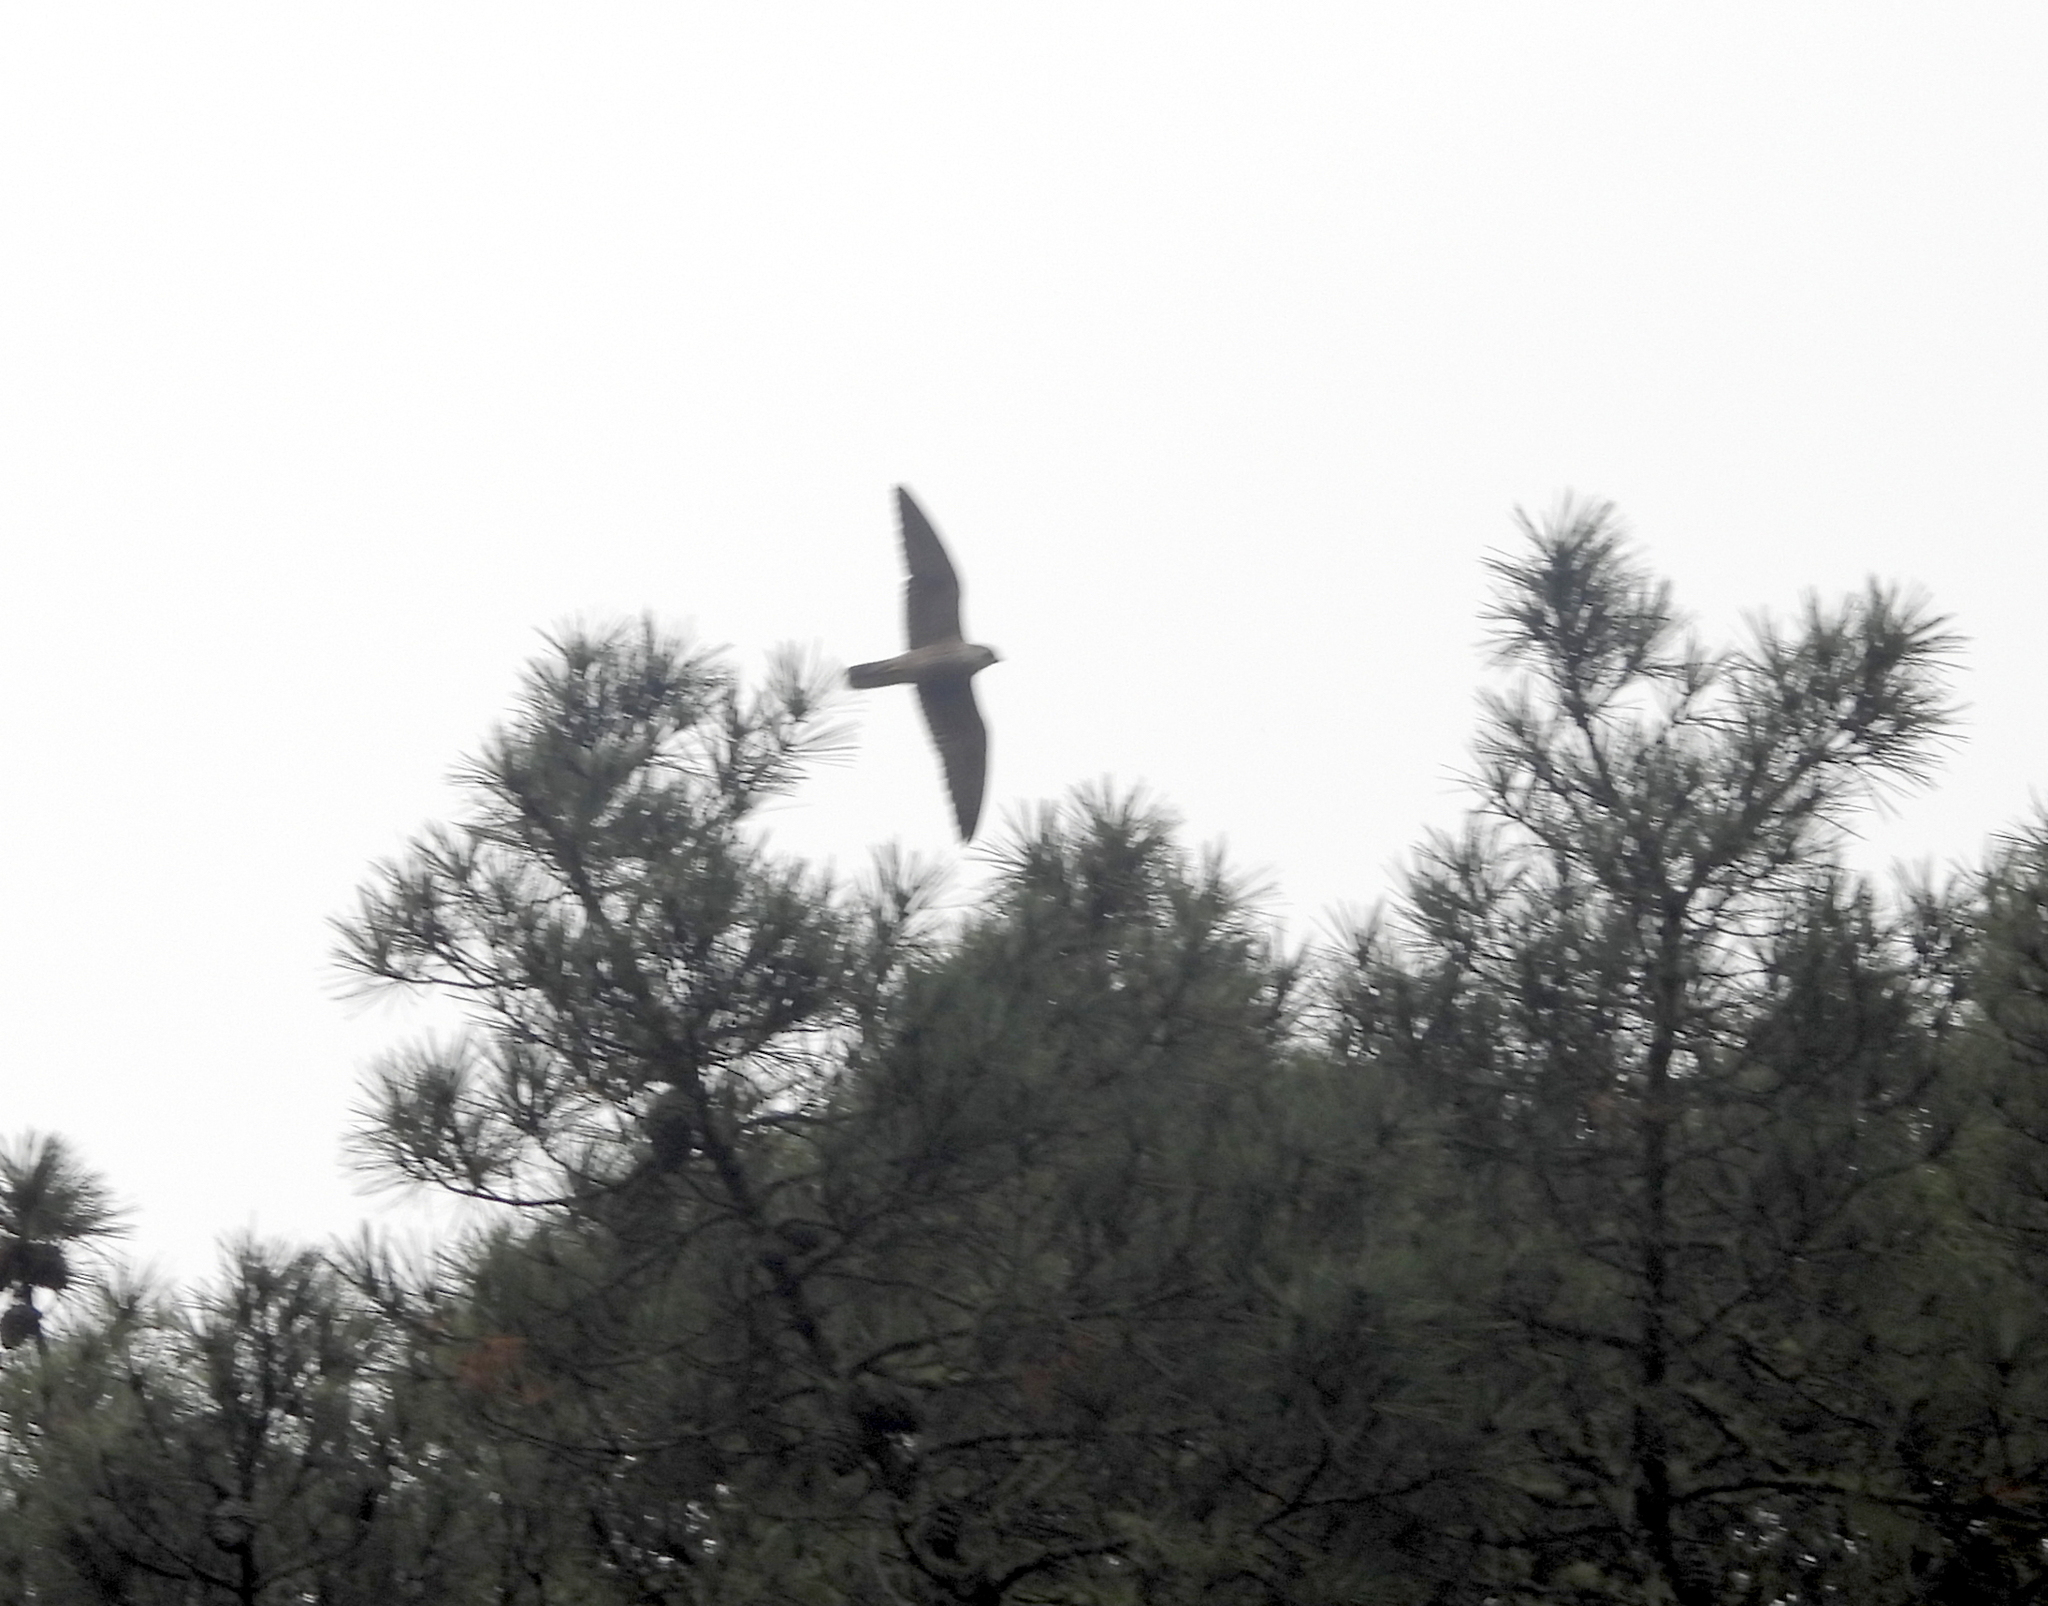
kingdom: Animalia
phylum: Chordata
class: Aves
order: Falconiformes
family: Falconidae
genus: Falco
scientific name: Falco peregrinus
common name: Peregrine falcon
